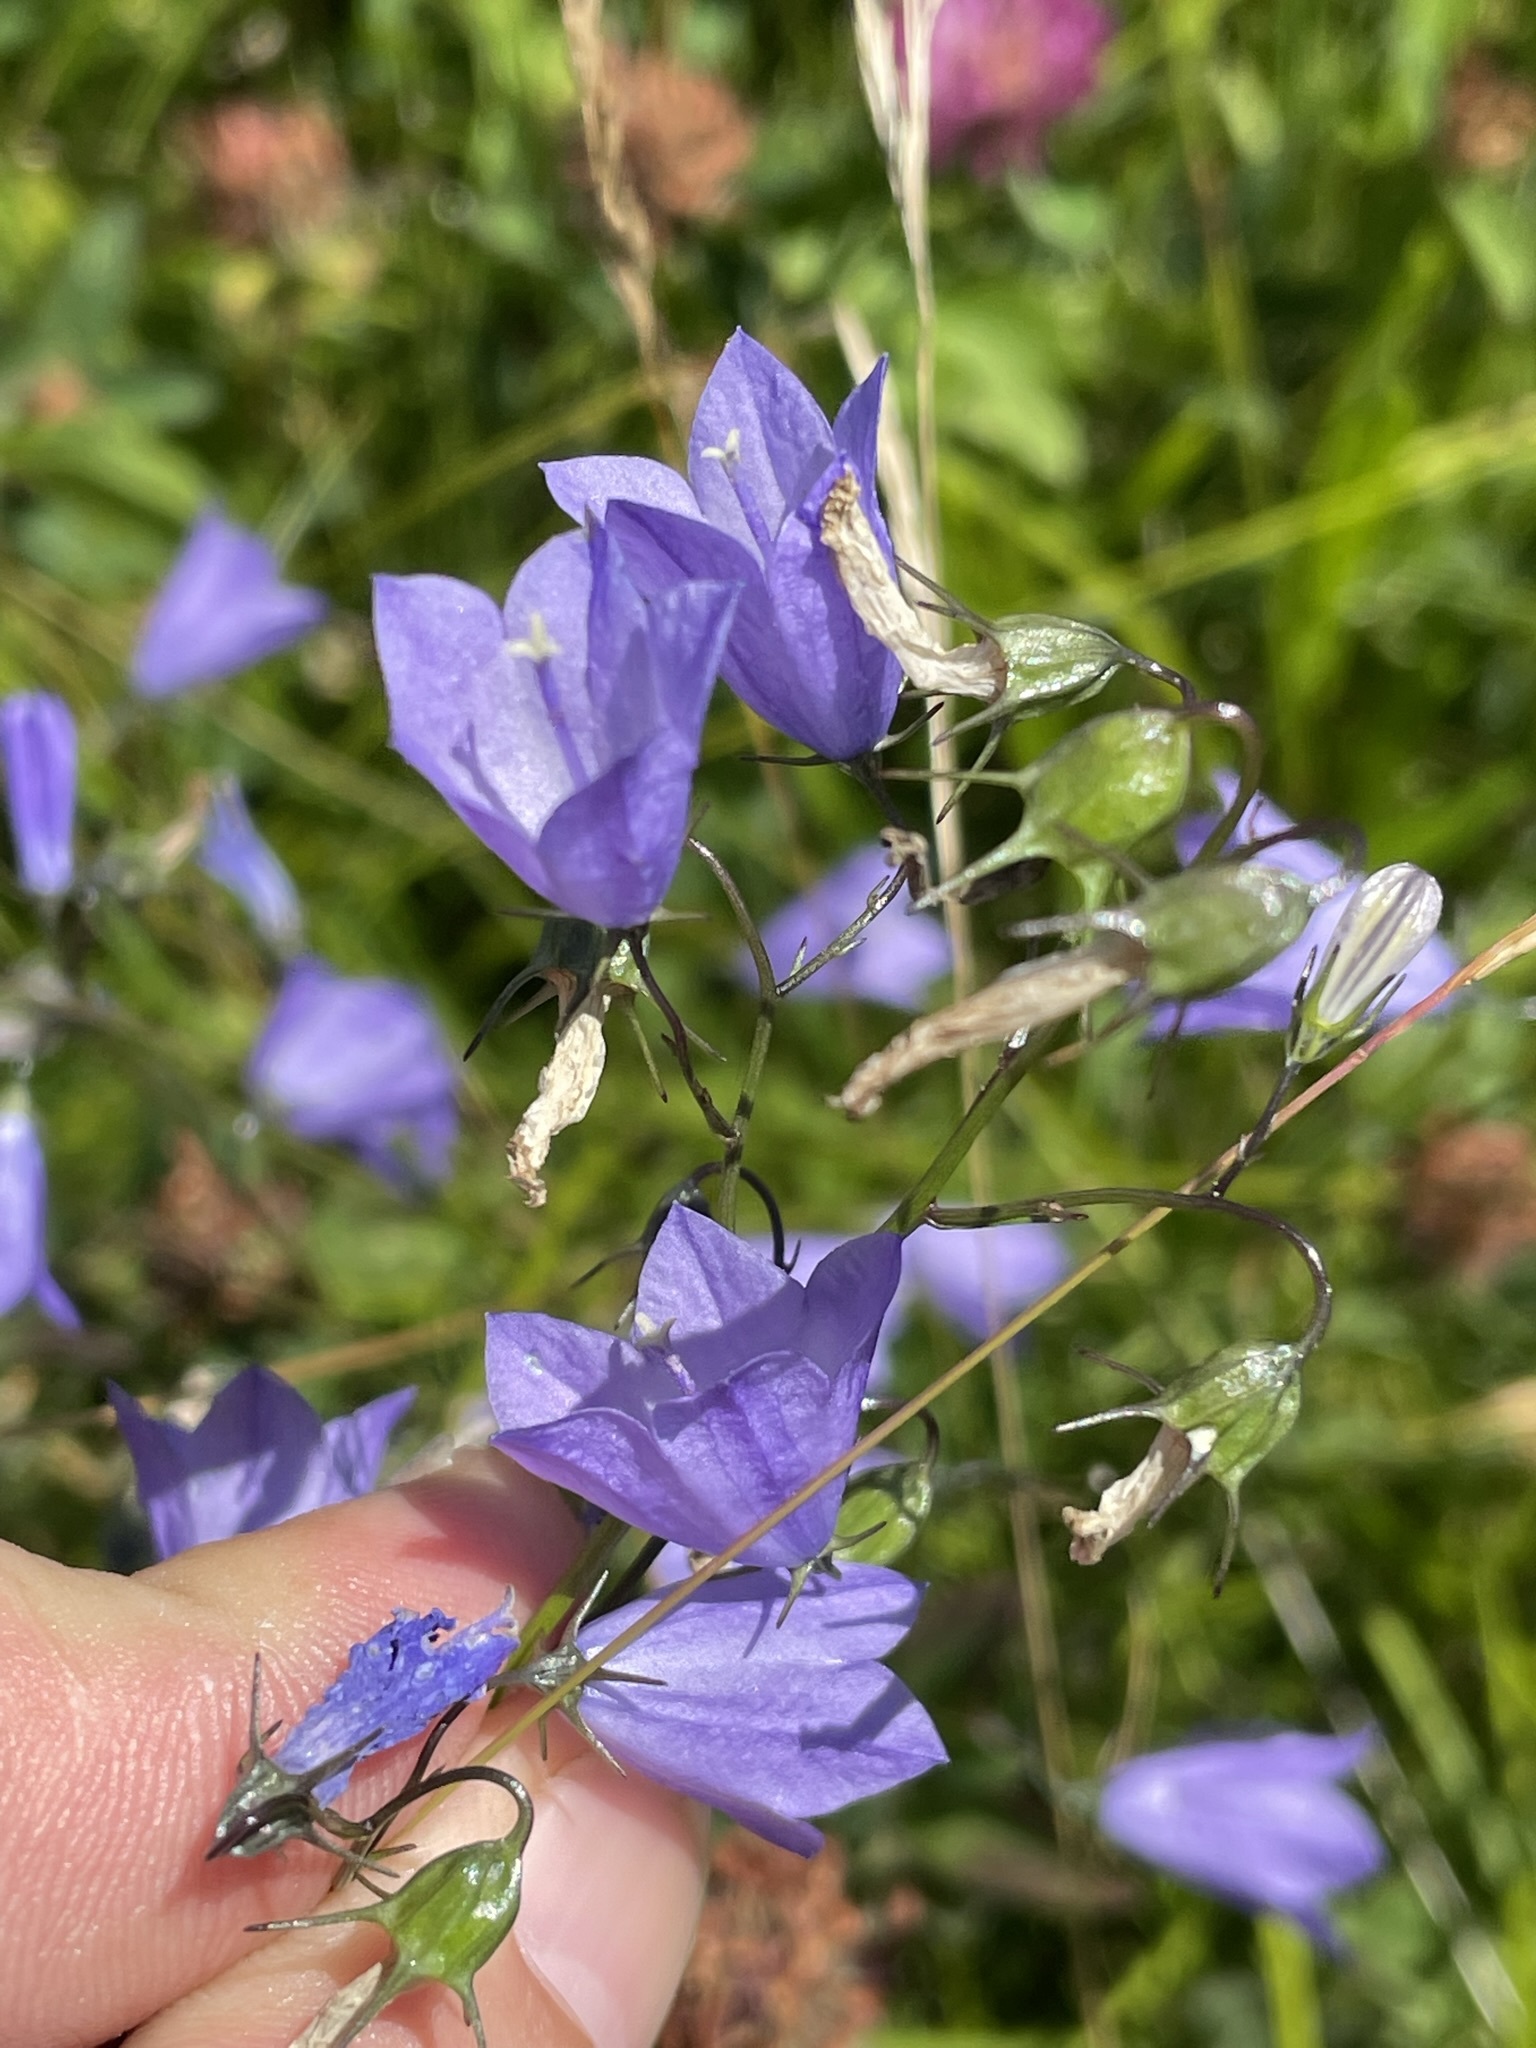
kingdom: Plantae
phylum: Tracheophyta
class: Magnoliopsida
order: Asterales
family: Campanulaceae
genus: Campanula
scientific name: Campanula rotundifolia
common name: Harebell
